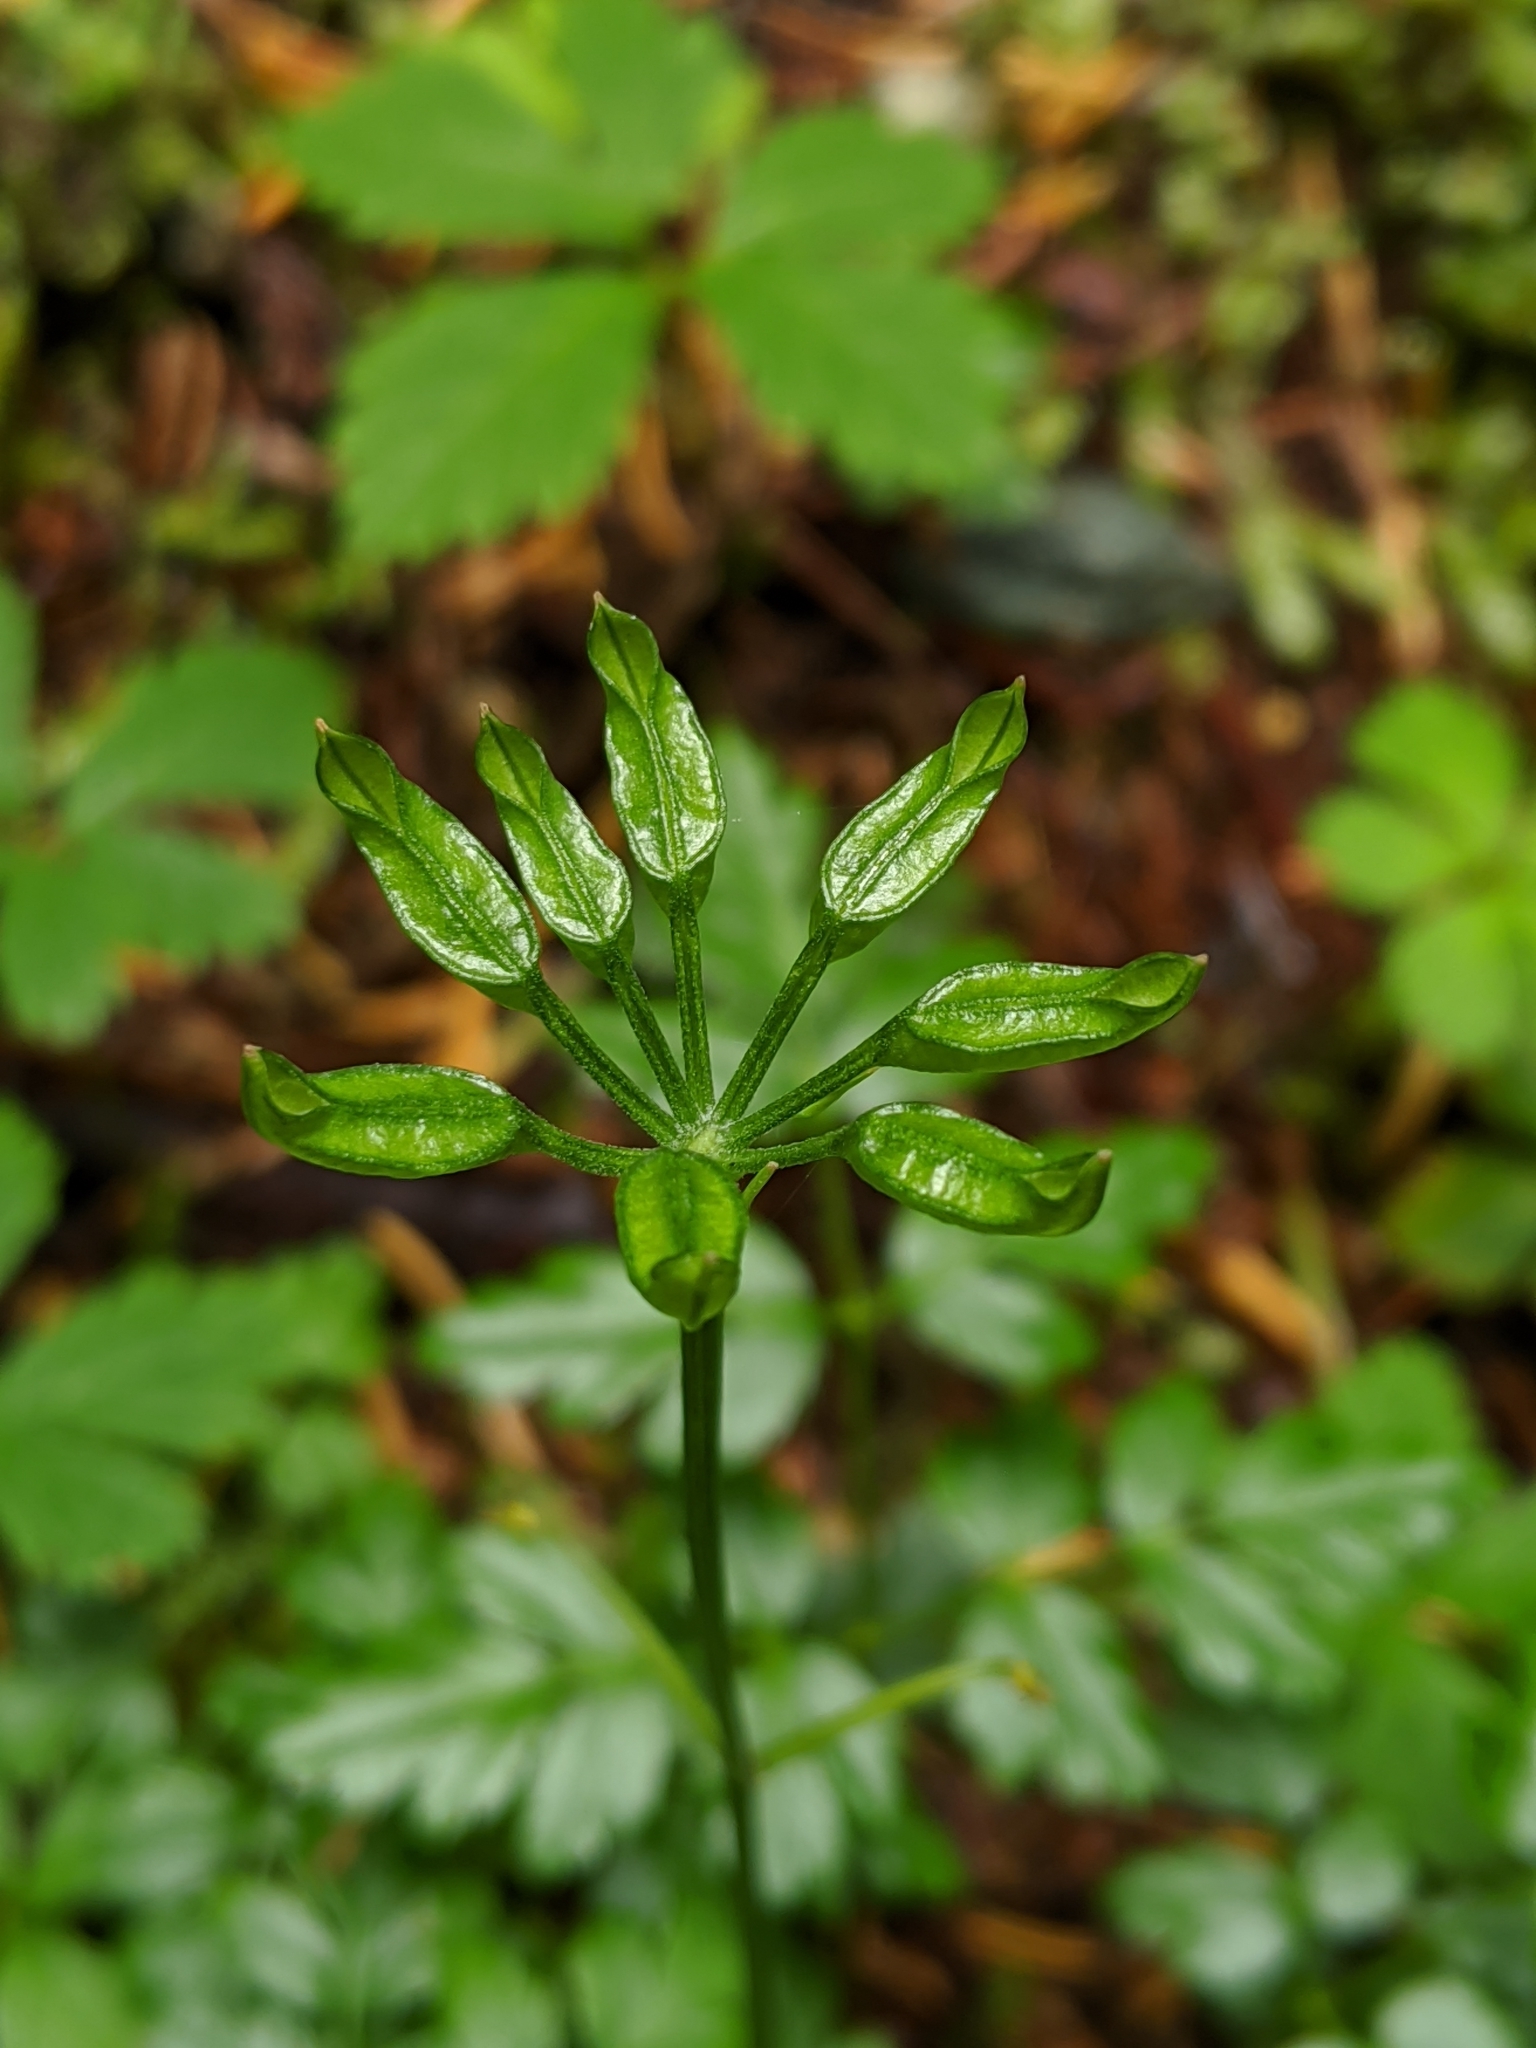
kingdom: Plantae
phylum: Tracheophyta
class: Magnoliopsida
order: Ranunculales
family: Ranunculaceae
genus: Coptis
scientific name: Coptis aspleniifolia
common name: Fern-leaved goldthread
